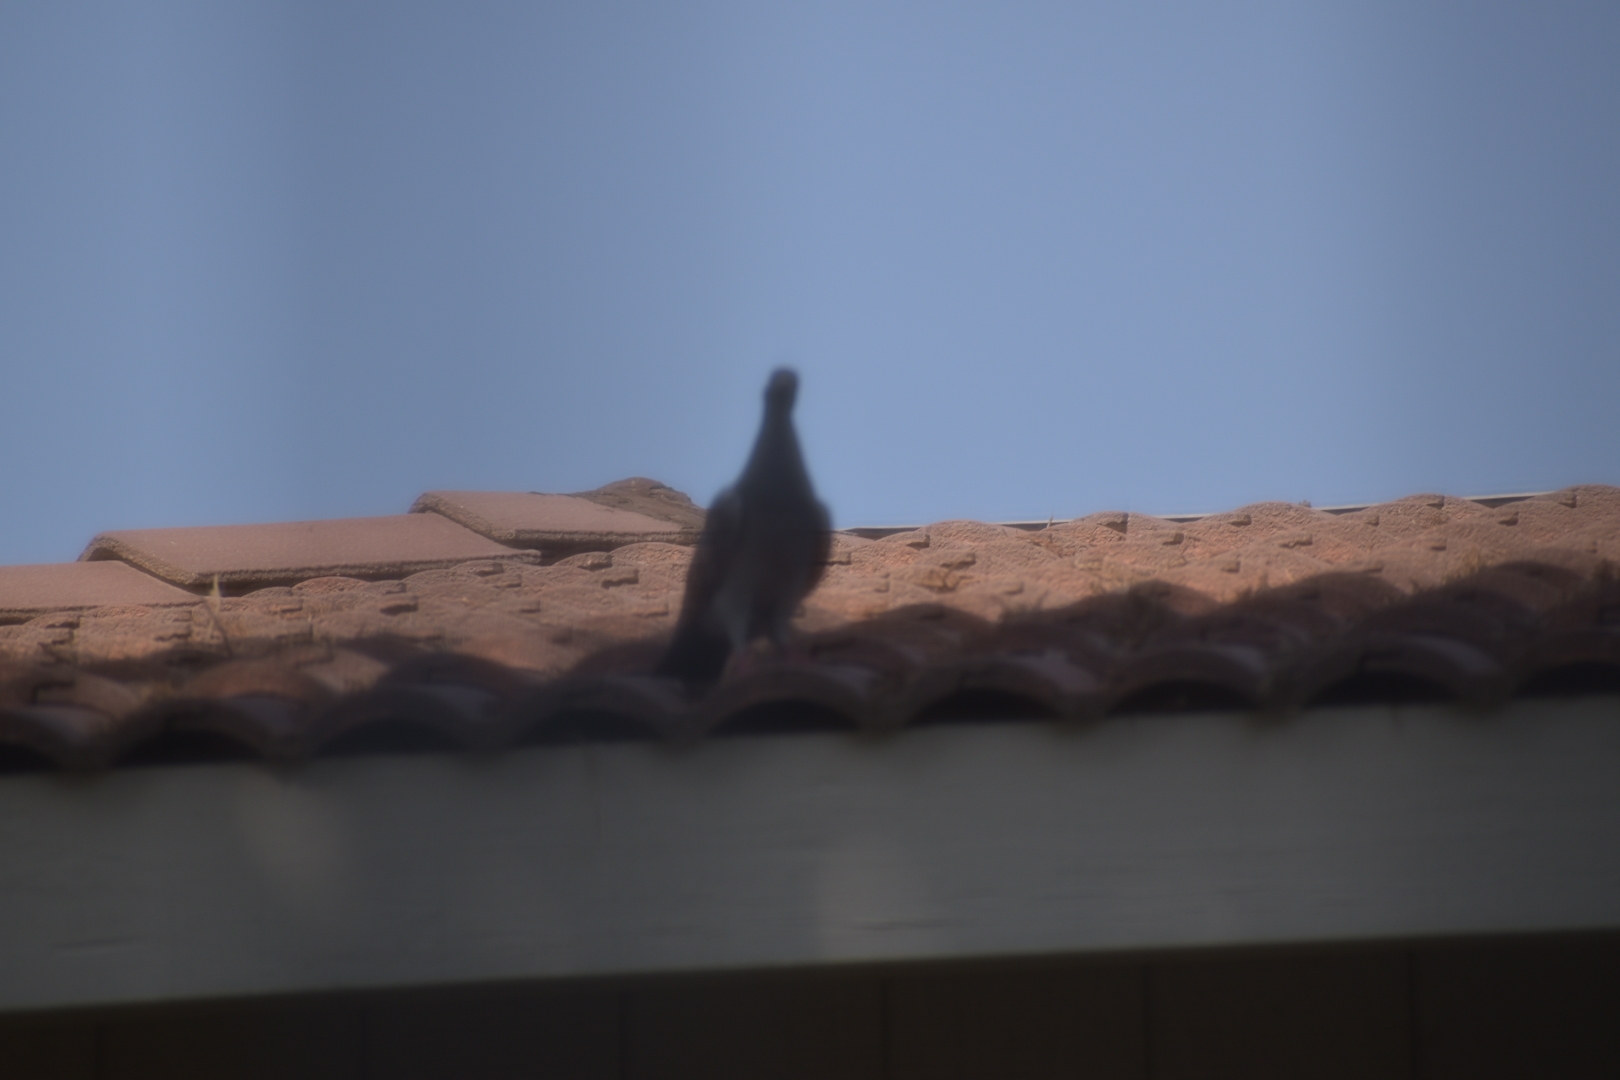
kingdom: Animalia
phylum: Chordata
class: Aves
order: Columbiformes
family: Columbidae
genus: Columba
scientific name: Columba livia
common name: Rock pigeon
